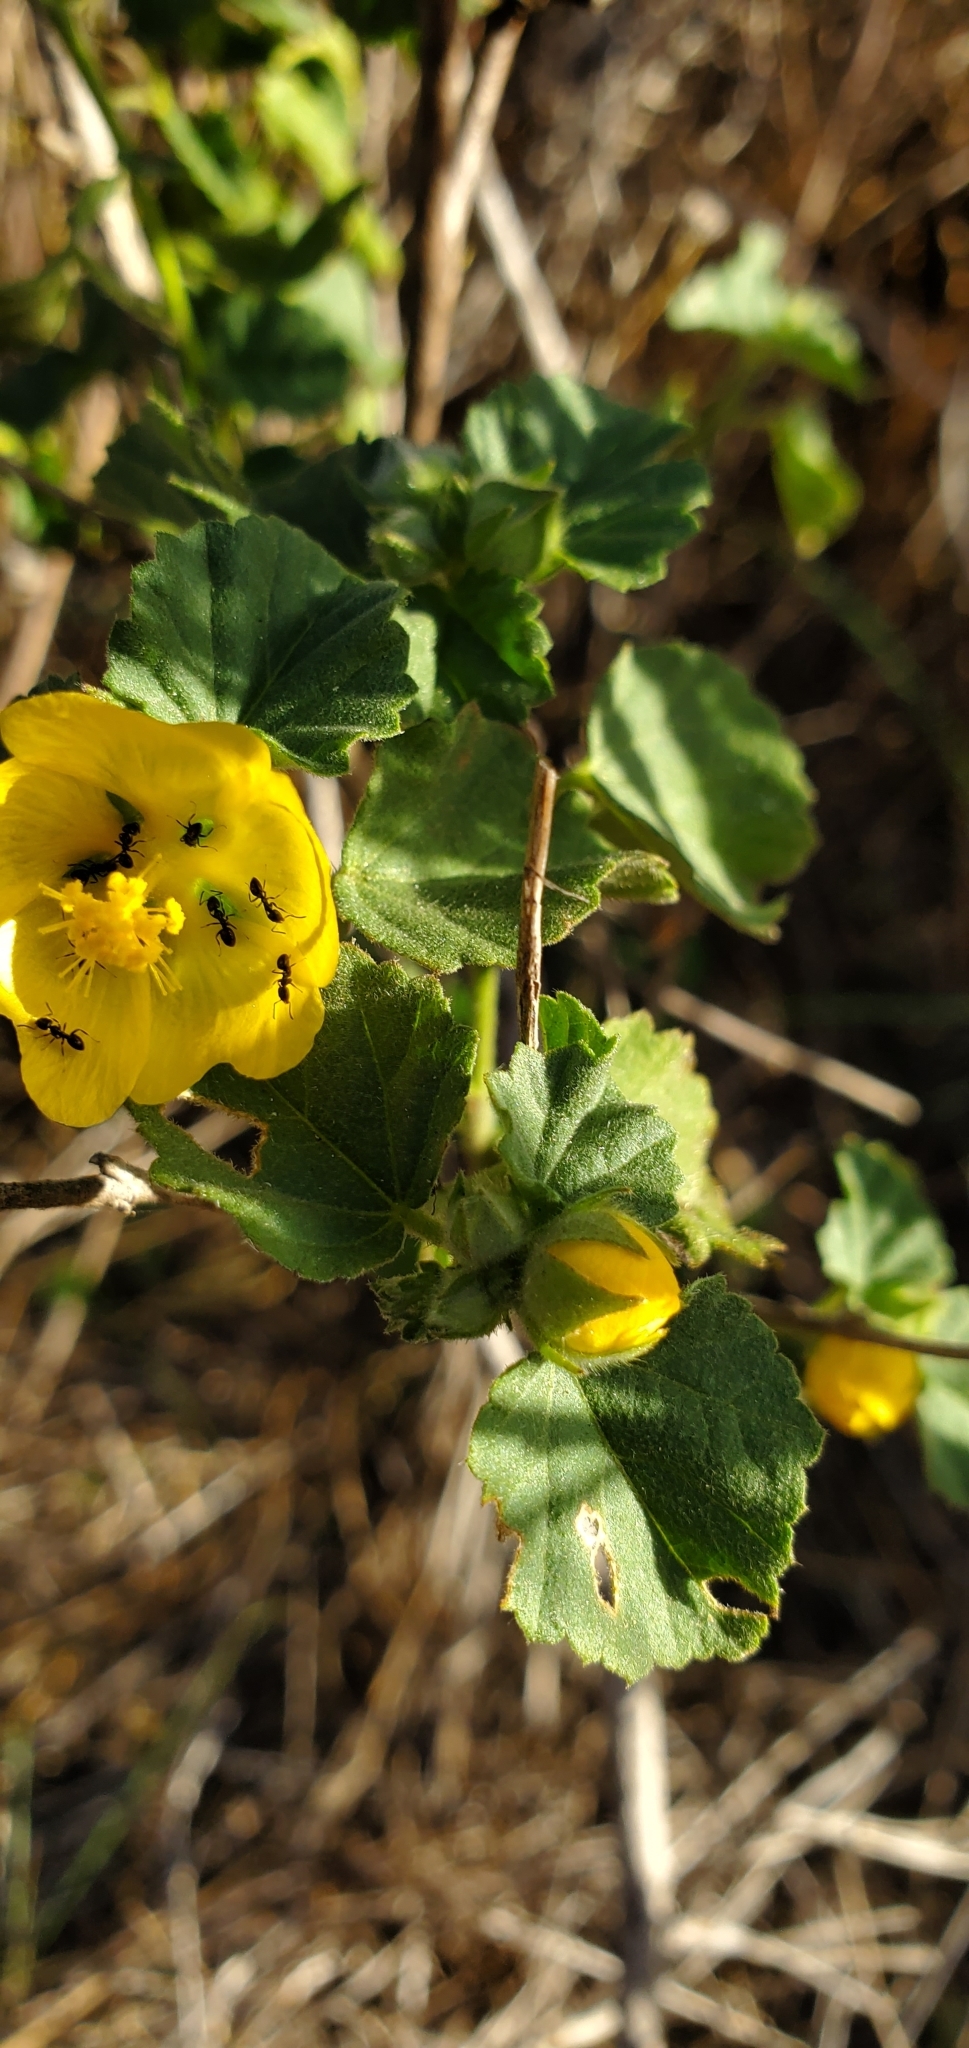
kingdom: Plantae
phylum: Tracheophyta
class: Magnoliopsida
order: Malvales
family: Malvaceae
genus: Sida
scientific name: Sida fallax
